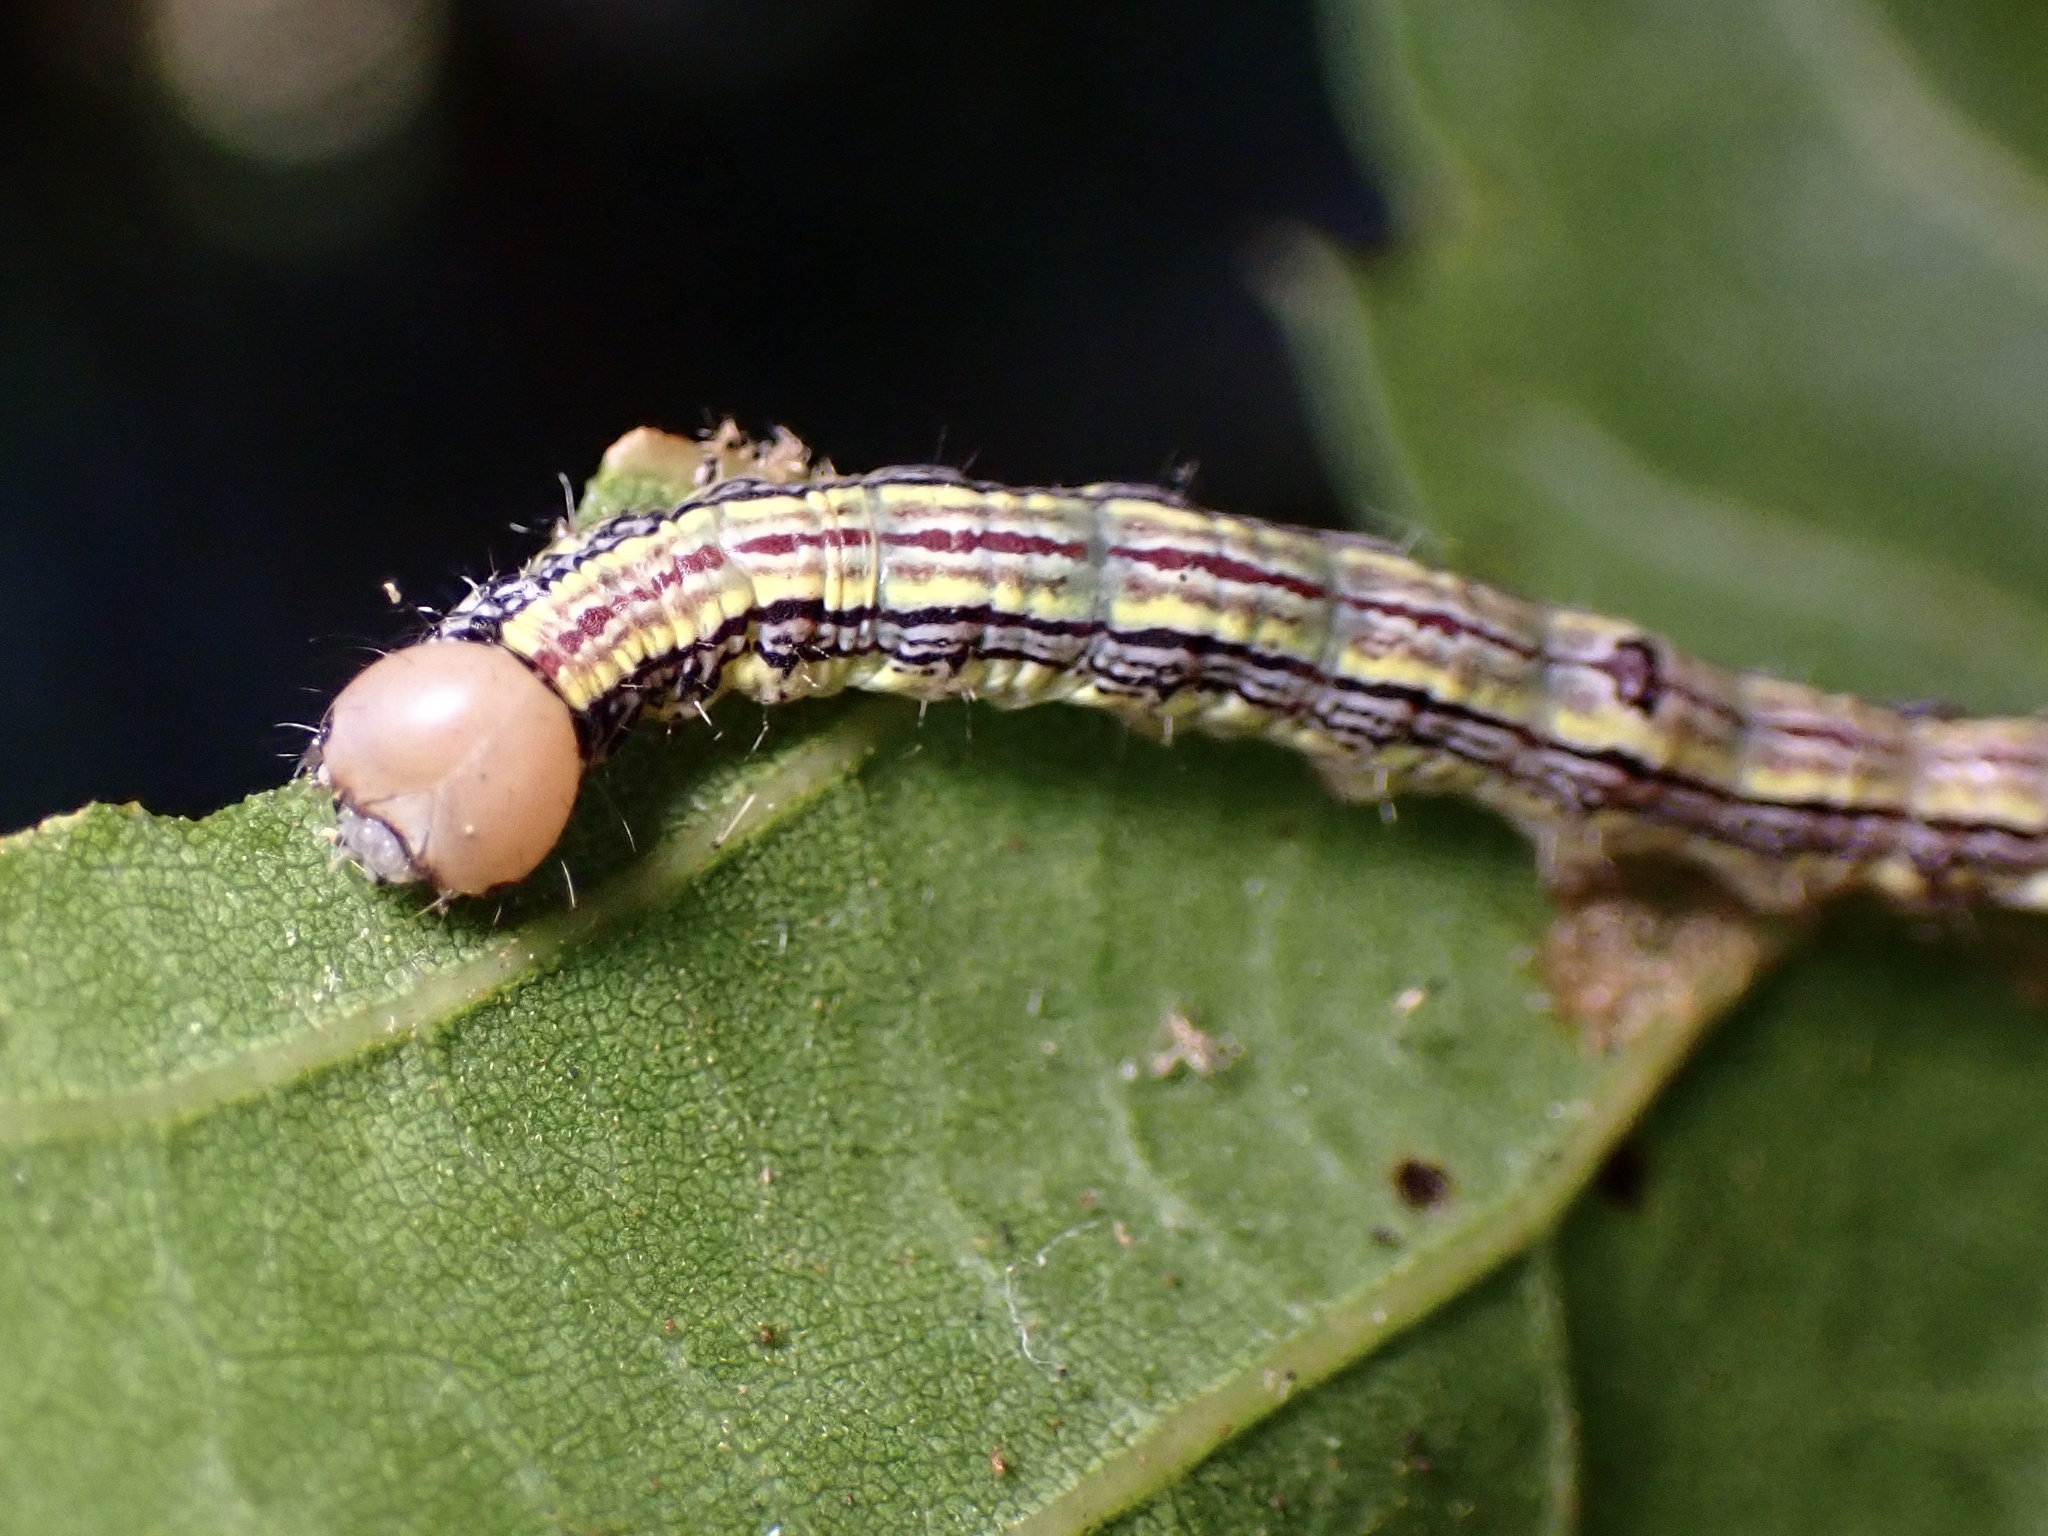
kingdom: Animalia
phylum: Arthropoda
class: Insecta
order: Lepidoptera
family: Notodontidae
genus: Phryganidia
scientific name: Phryganidia californica
